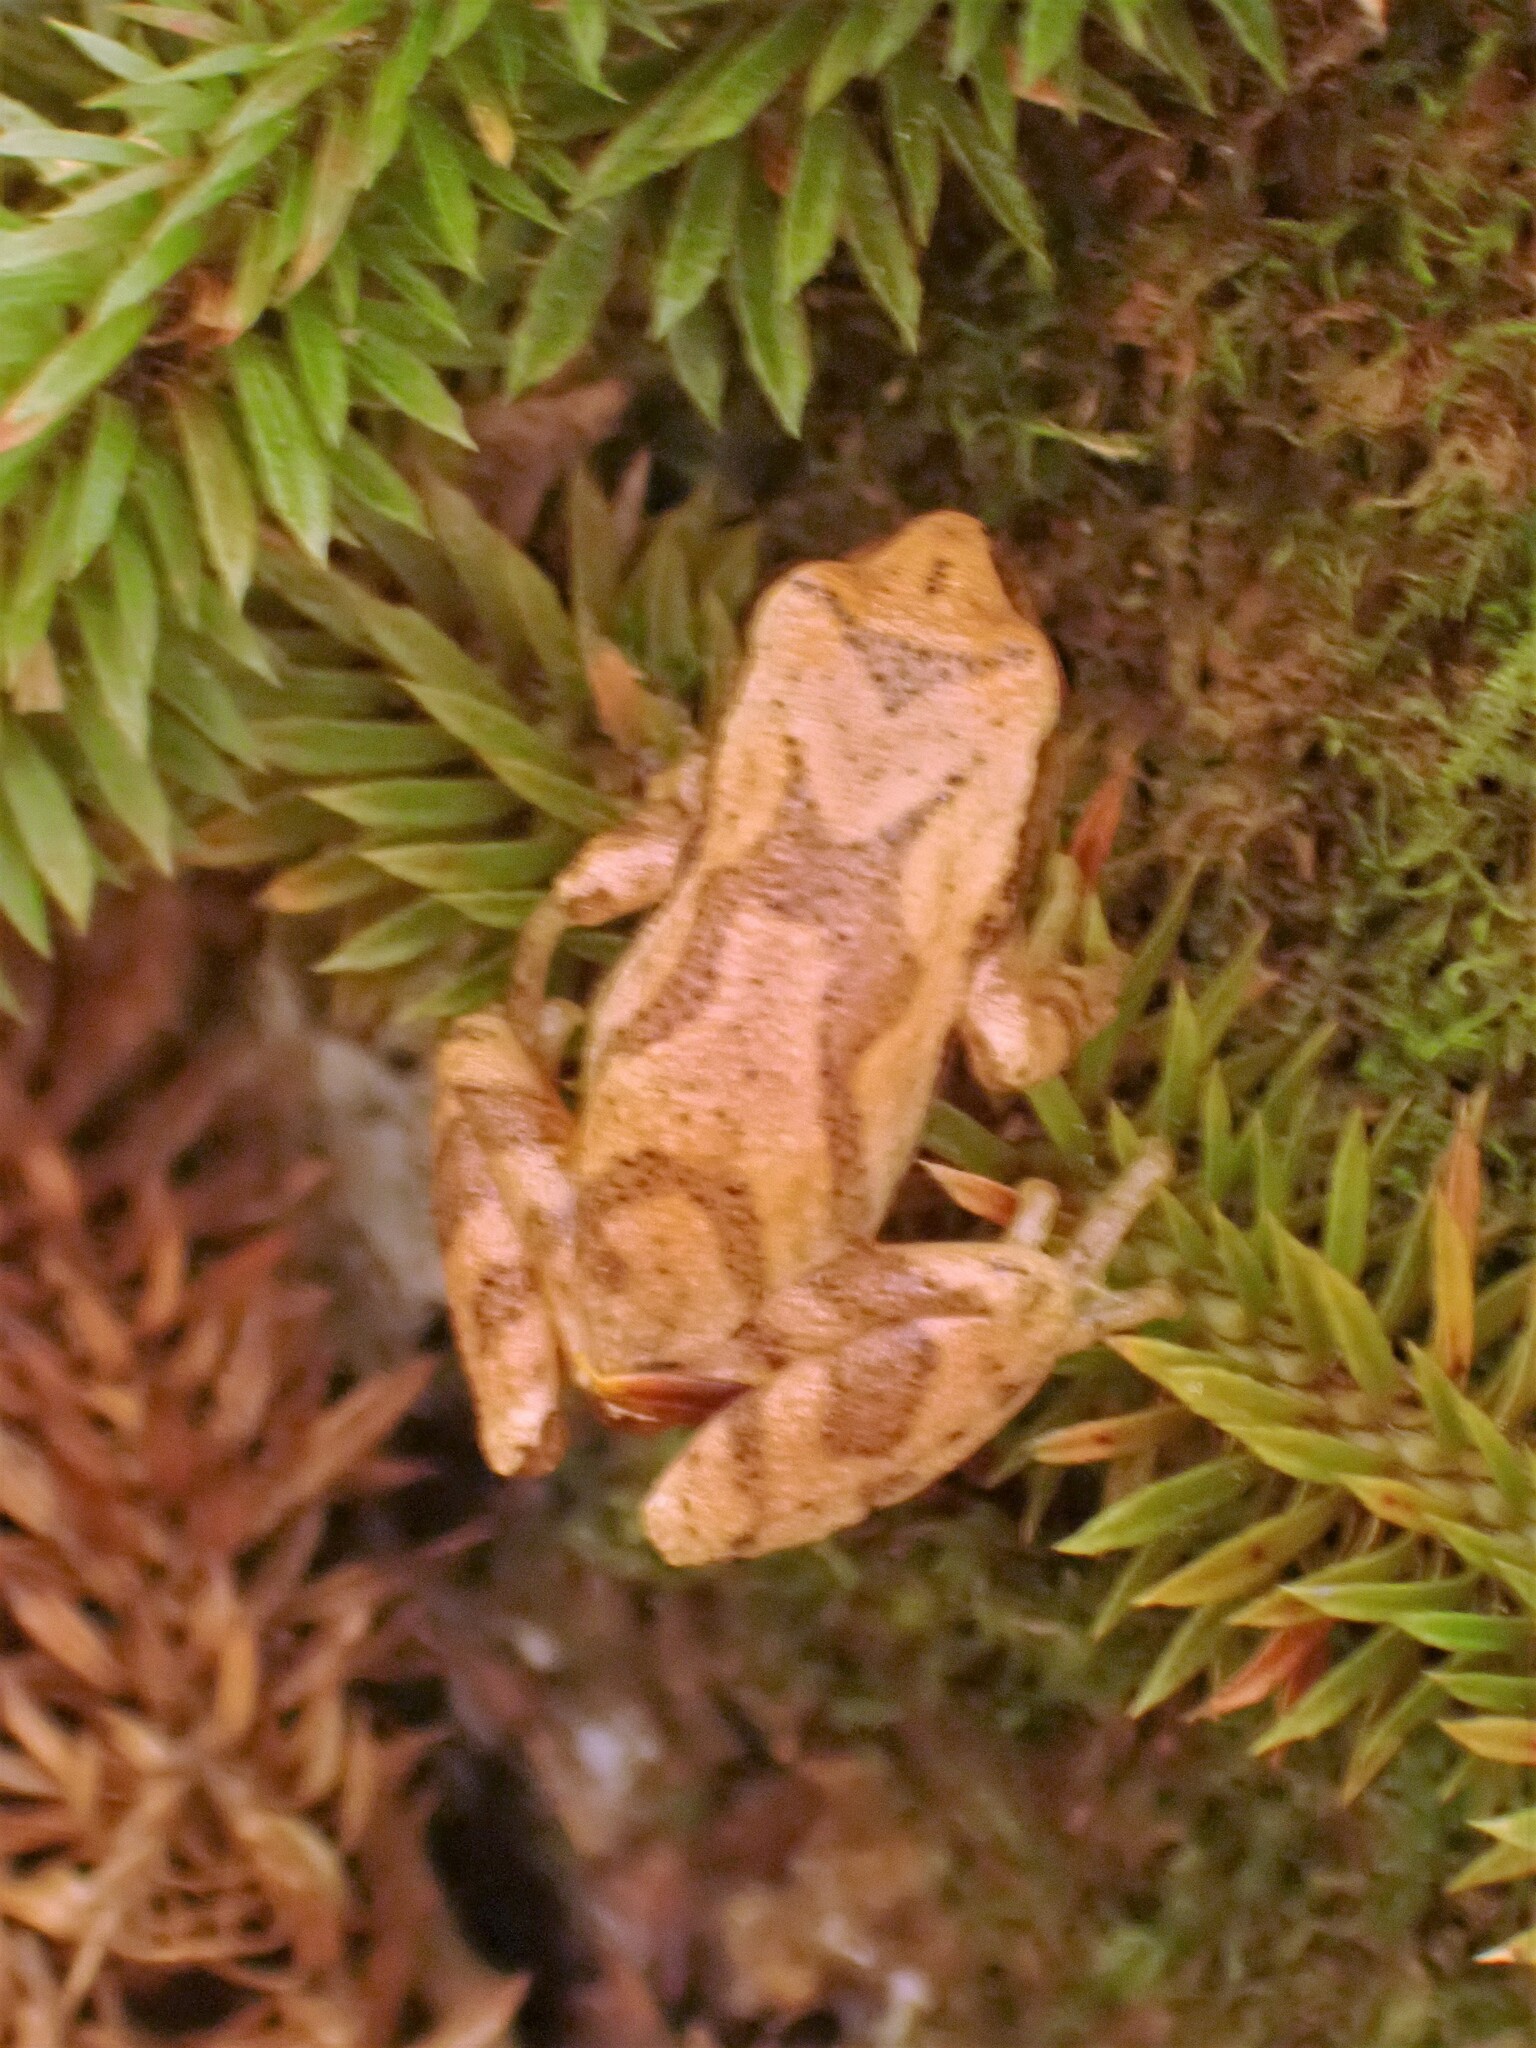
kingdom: Animalia
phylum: Chordata
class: Amphibia
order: Anura
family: Hylidae
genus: Pseudacris
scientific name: Pseudacris crucifer
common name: Spring peeper
